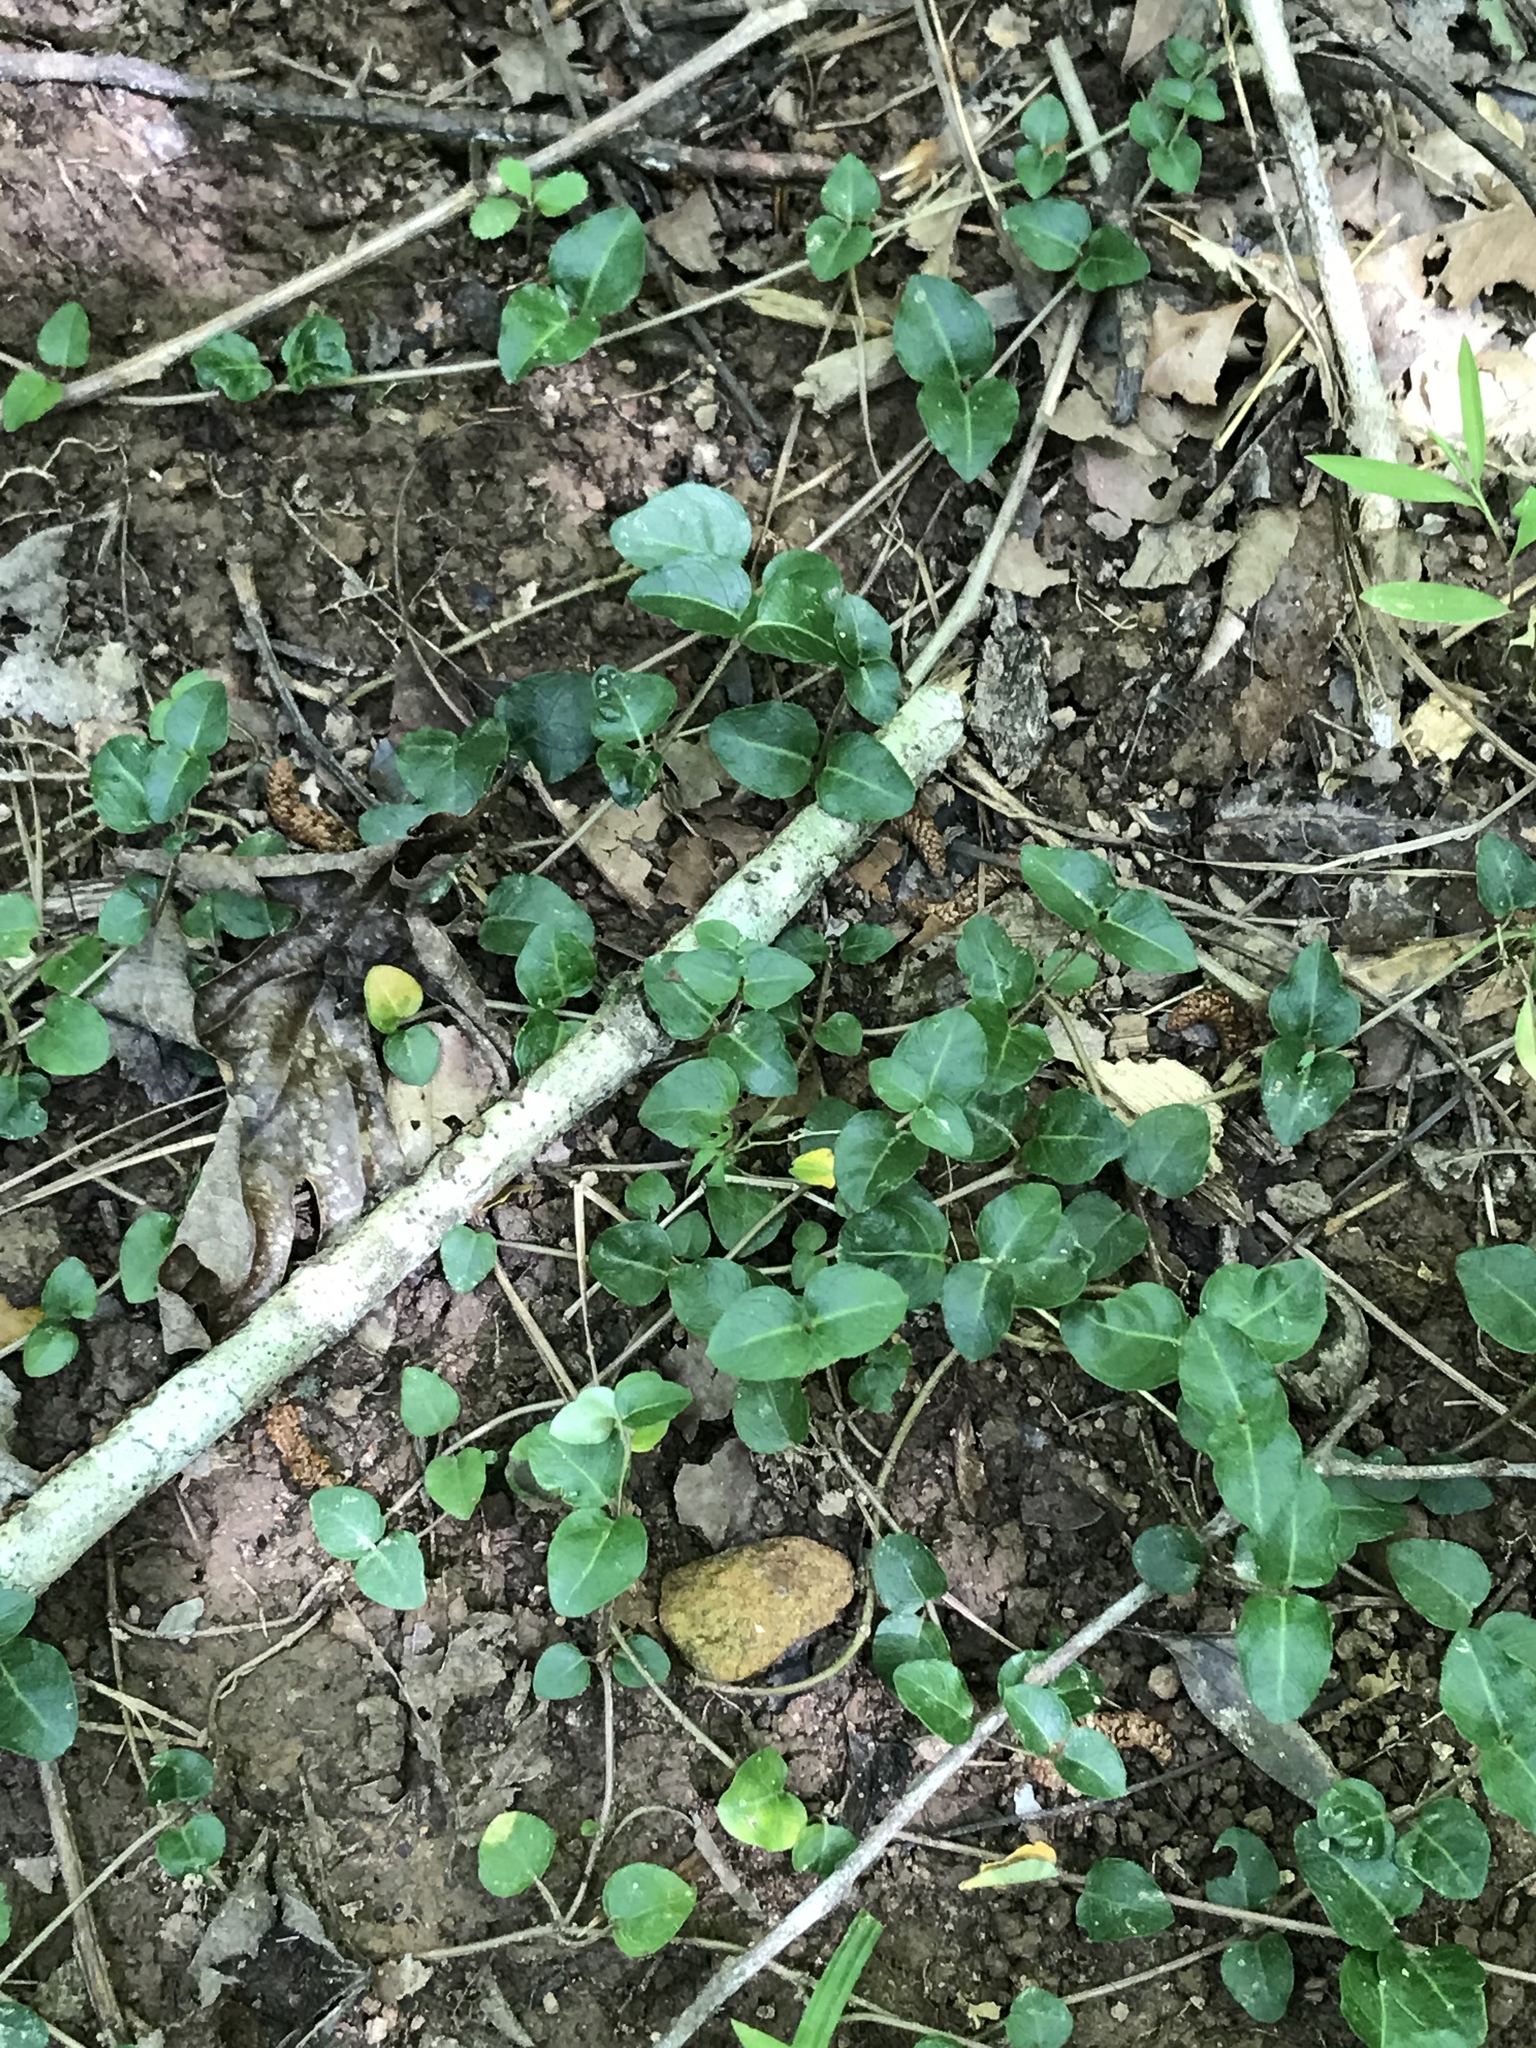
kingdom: Plantae
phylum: Tracheophyta
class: Magnoliopsida
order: Gentianales
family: Rubiaceae
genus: Mitchella
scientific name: Mitchella repens
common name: Partridge-berry
